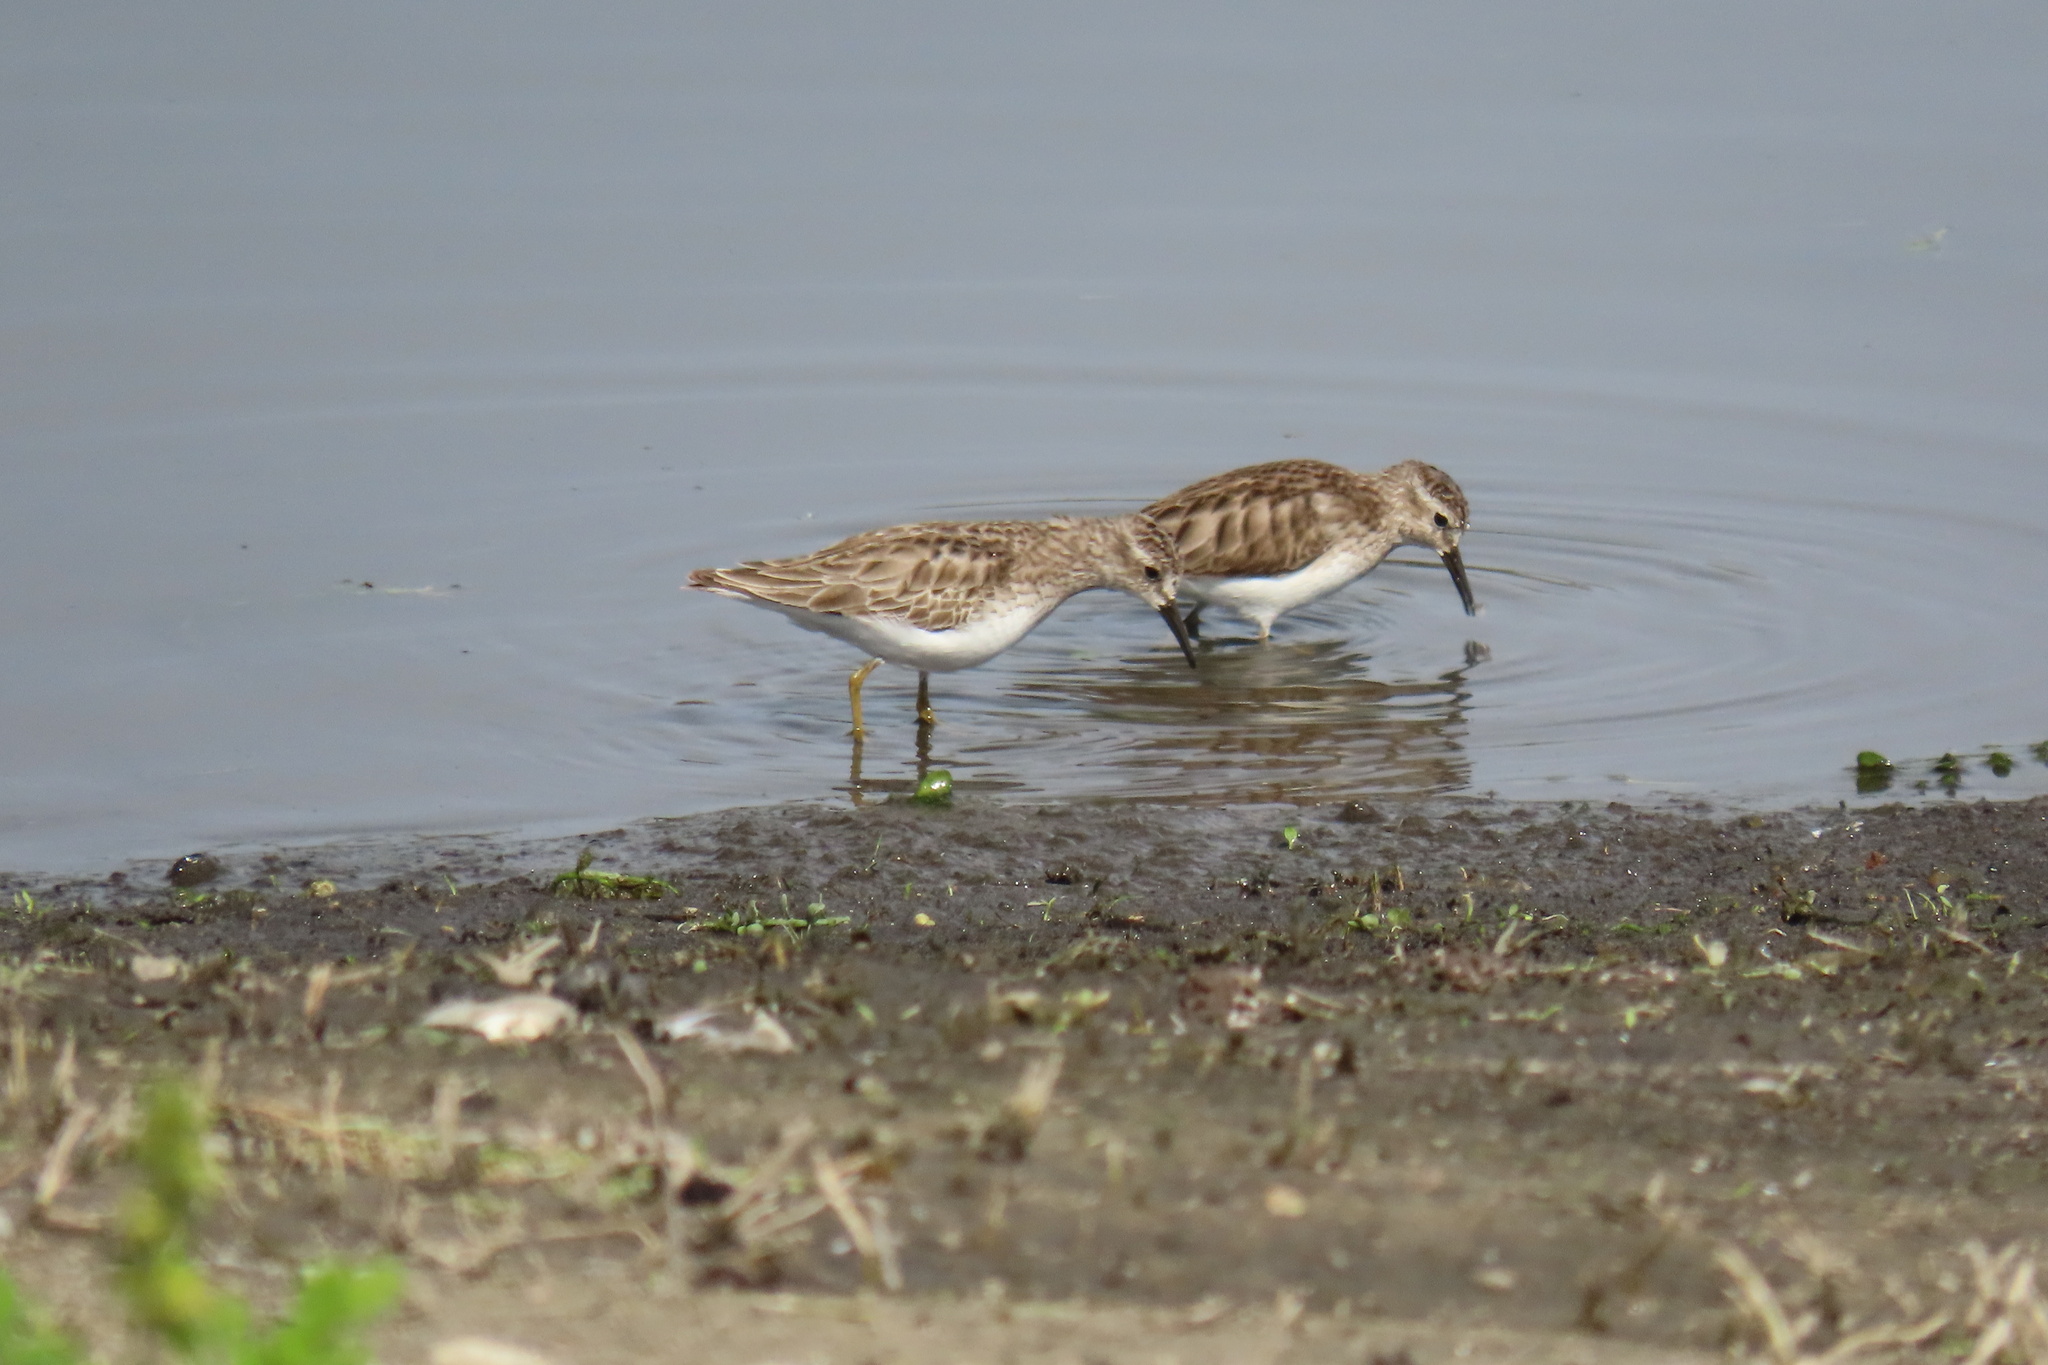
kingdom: Animalia
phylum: Chordata
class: Aves
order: Charadriiformes
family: Scolopacidae
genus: Calidris
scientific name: Calidris minutilla
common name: Least sandpiper
